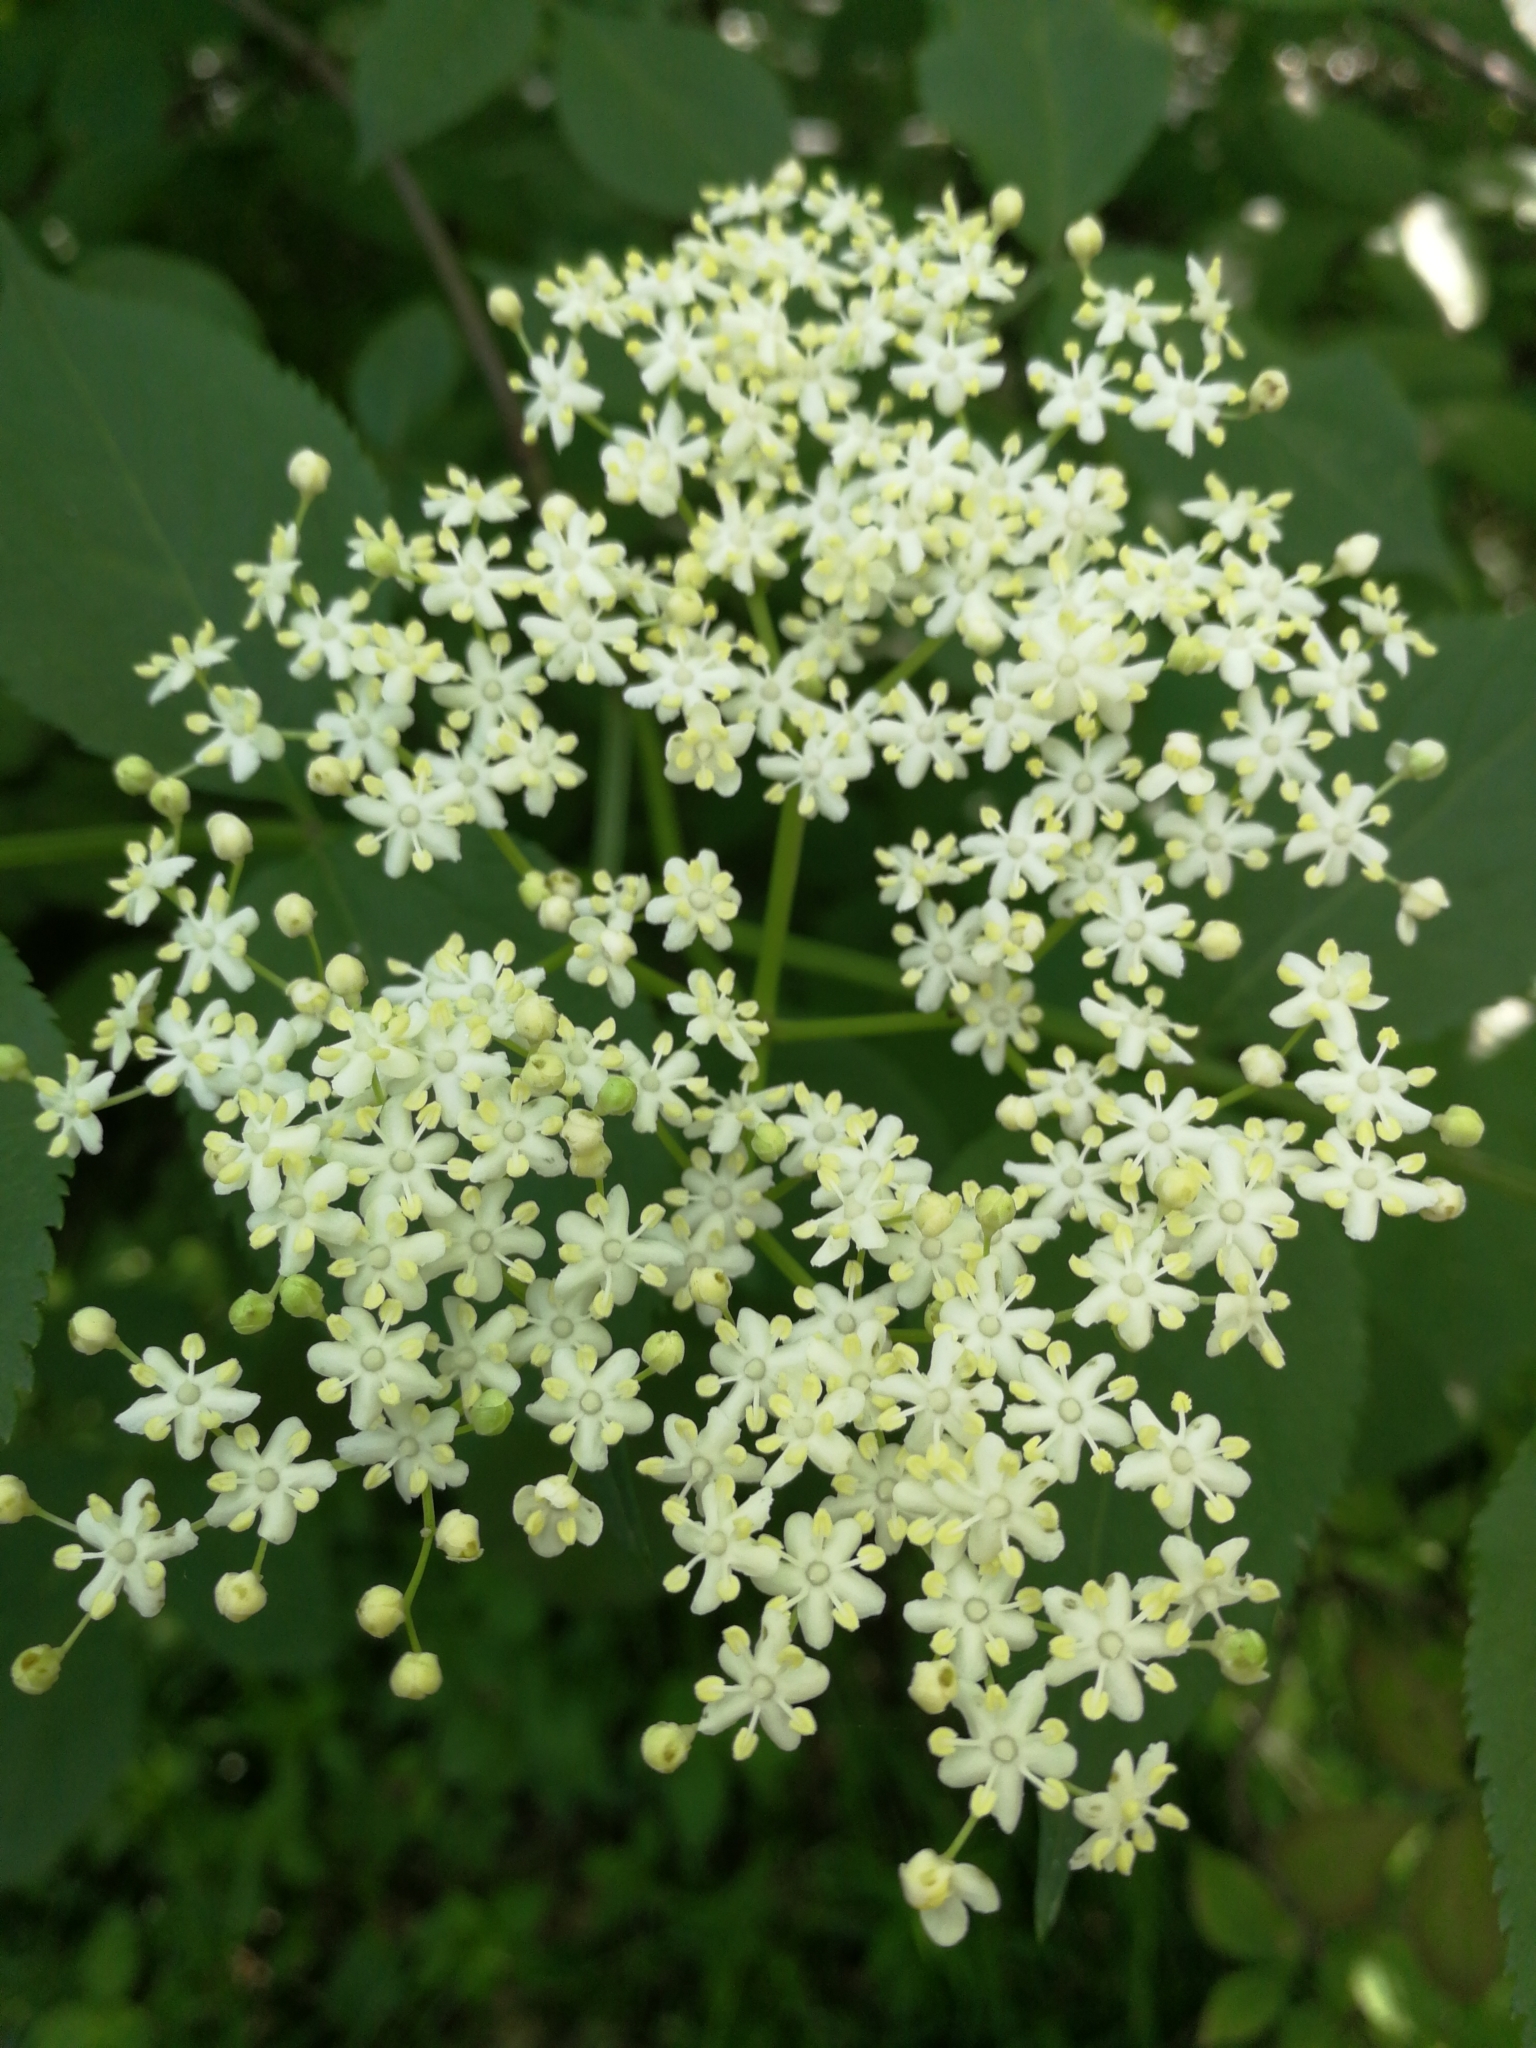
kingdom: Plantae
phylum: Tracheophyta
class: Magnoliopsida
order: Dipsacales
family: Viburnaceae
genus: Sambucus
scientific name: Sambucus nigra
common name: Elder
